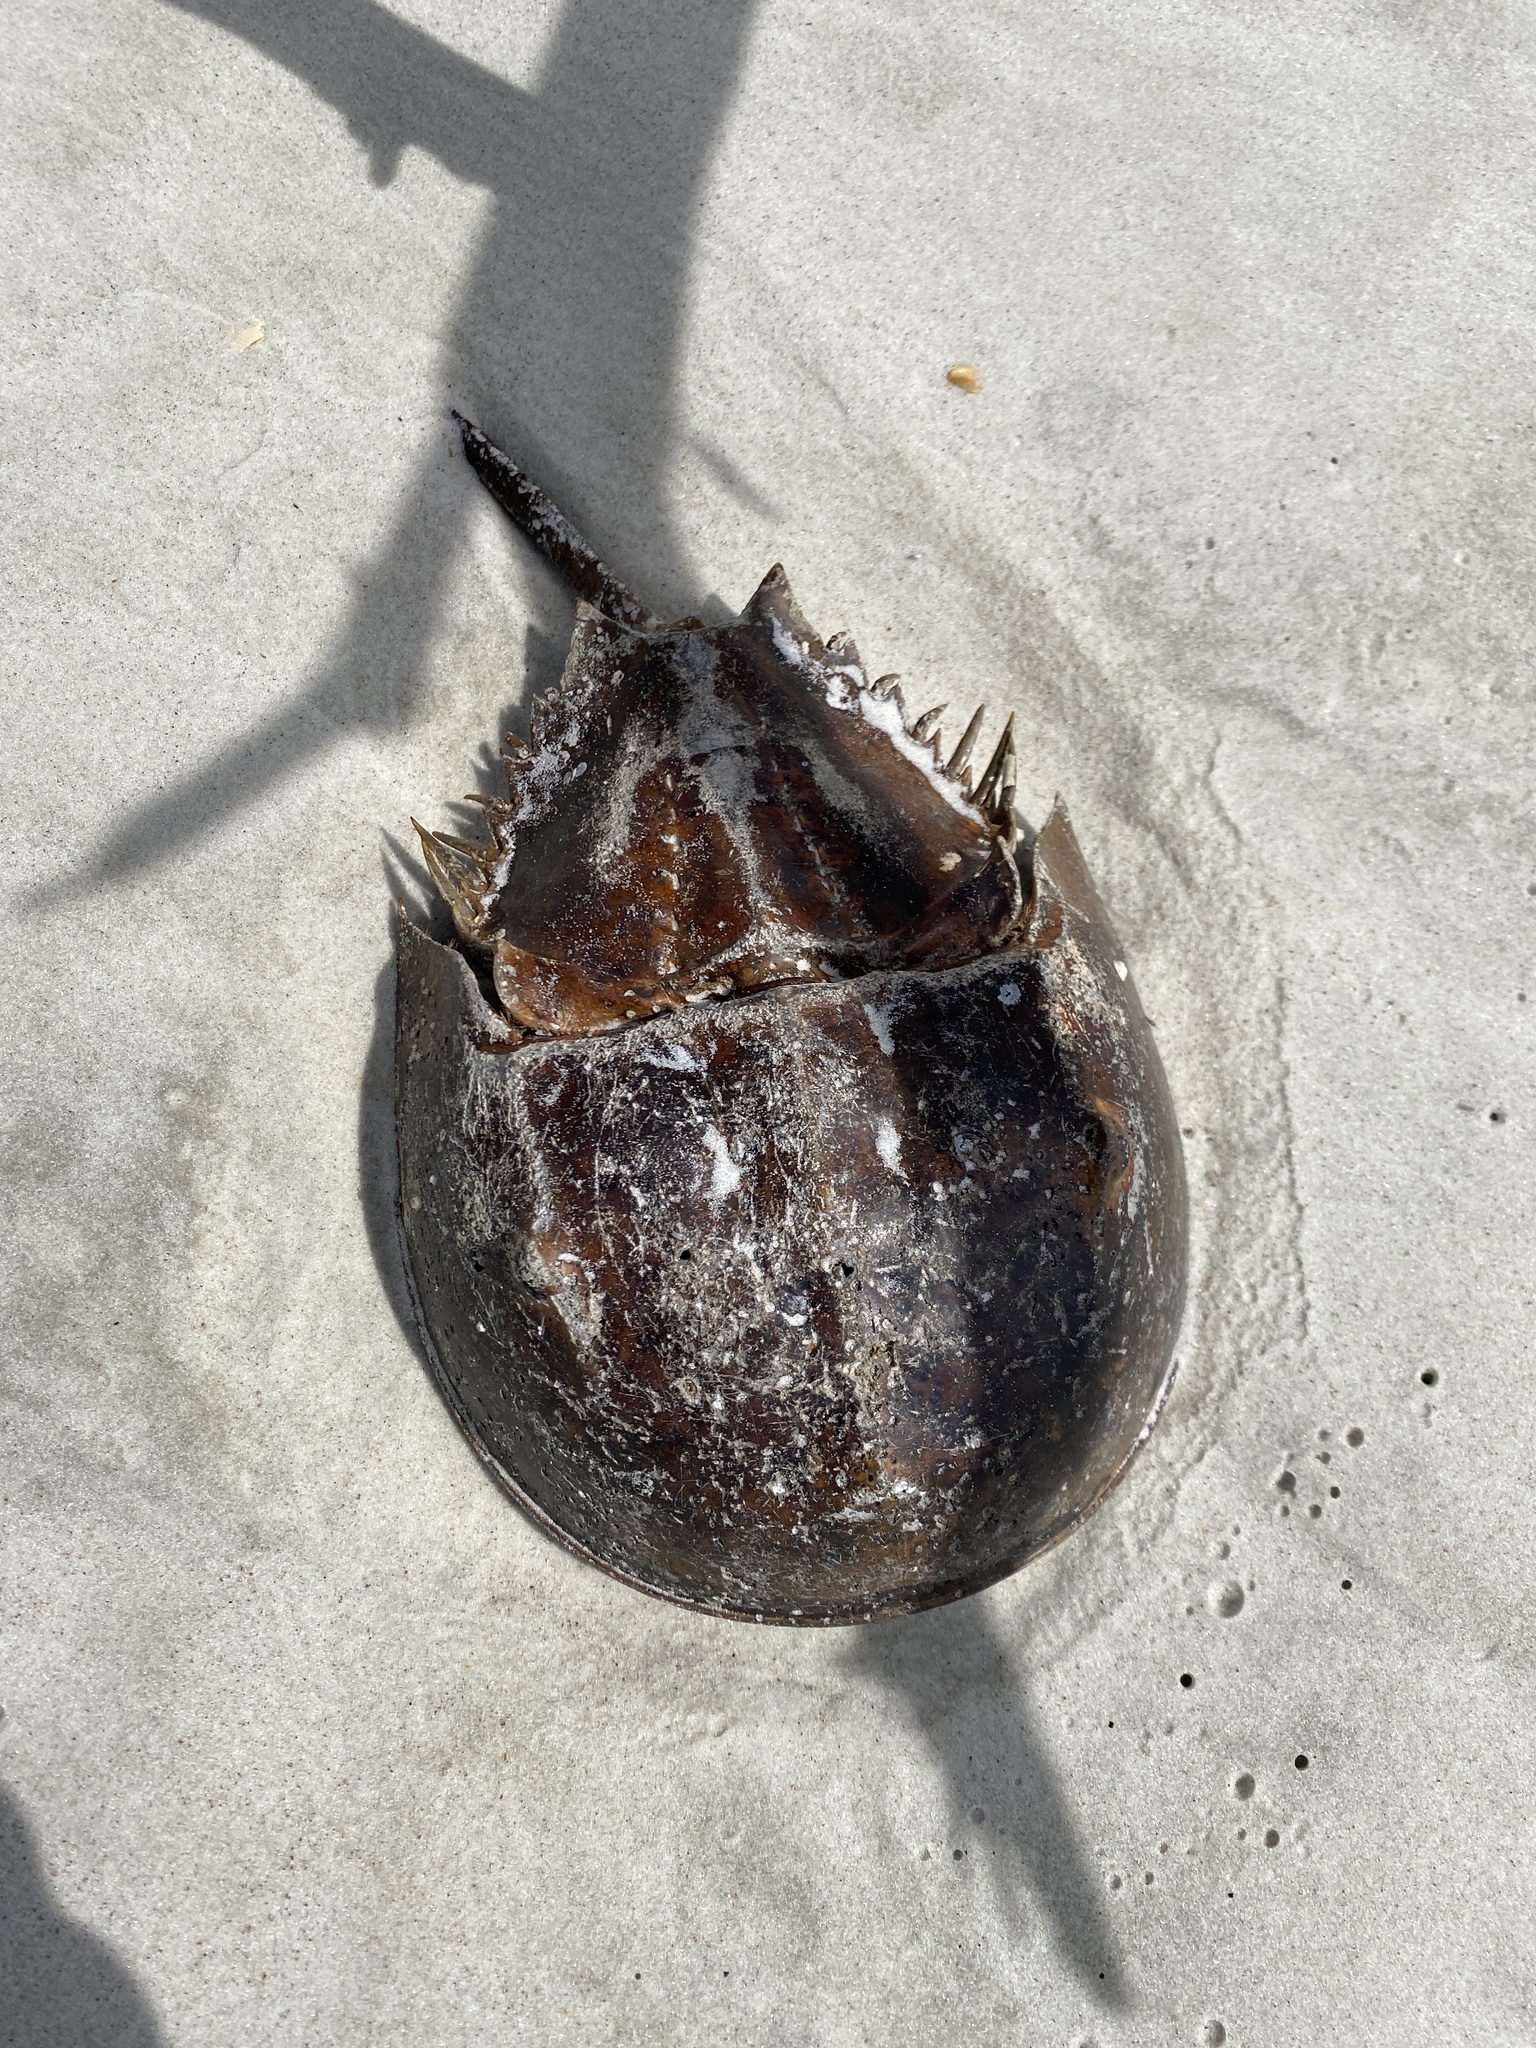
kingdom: Animalia
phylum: Arthropoda
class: Merostomata
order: Xiphosurida
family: Limulidae
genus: Limulus
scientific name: Limulus polyphemus
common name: Horseshoe crab
